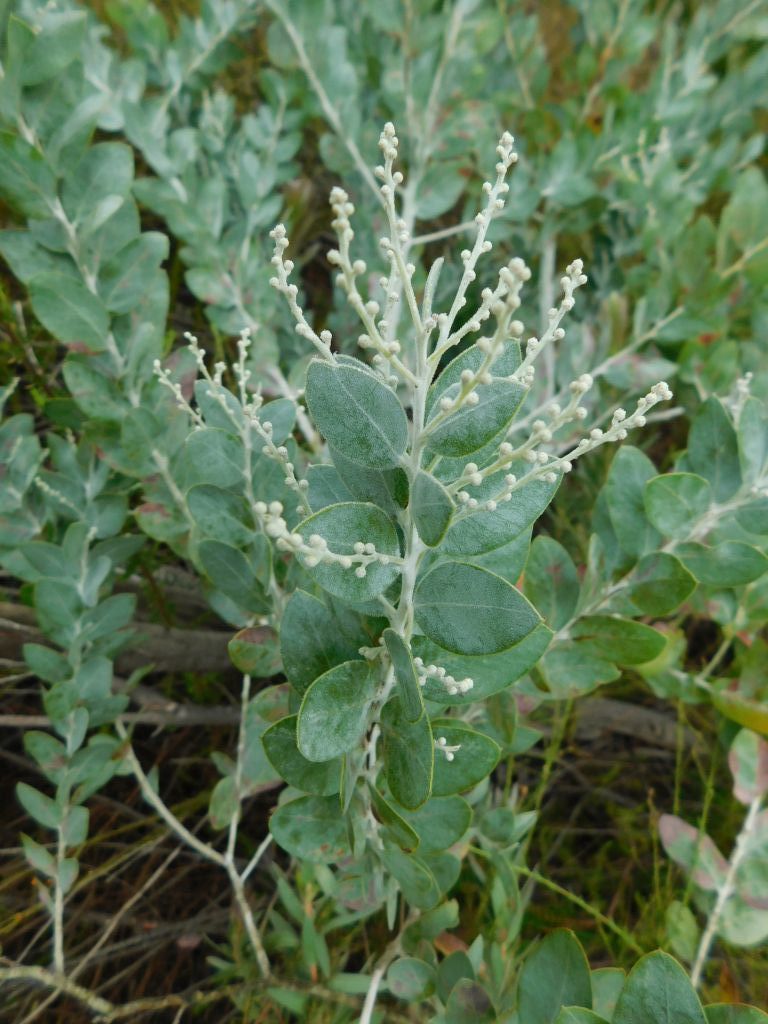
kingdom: Plantae
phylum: Tracheophyta
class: Magnoliopsida
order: Fabales
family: Fabaceae
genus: Acacia
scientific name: Acacia podalyriifolia
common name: Pearl wattle
